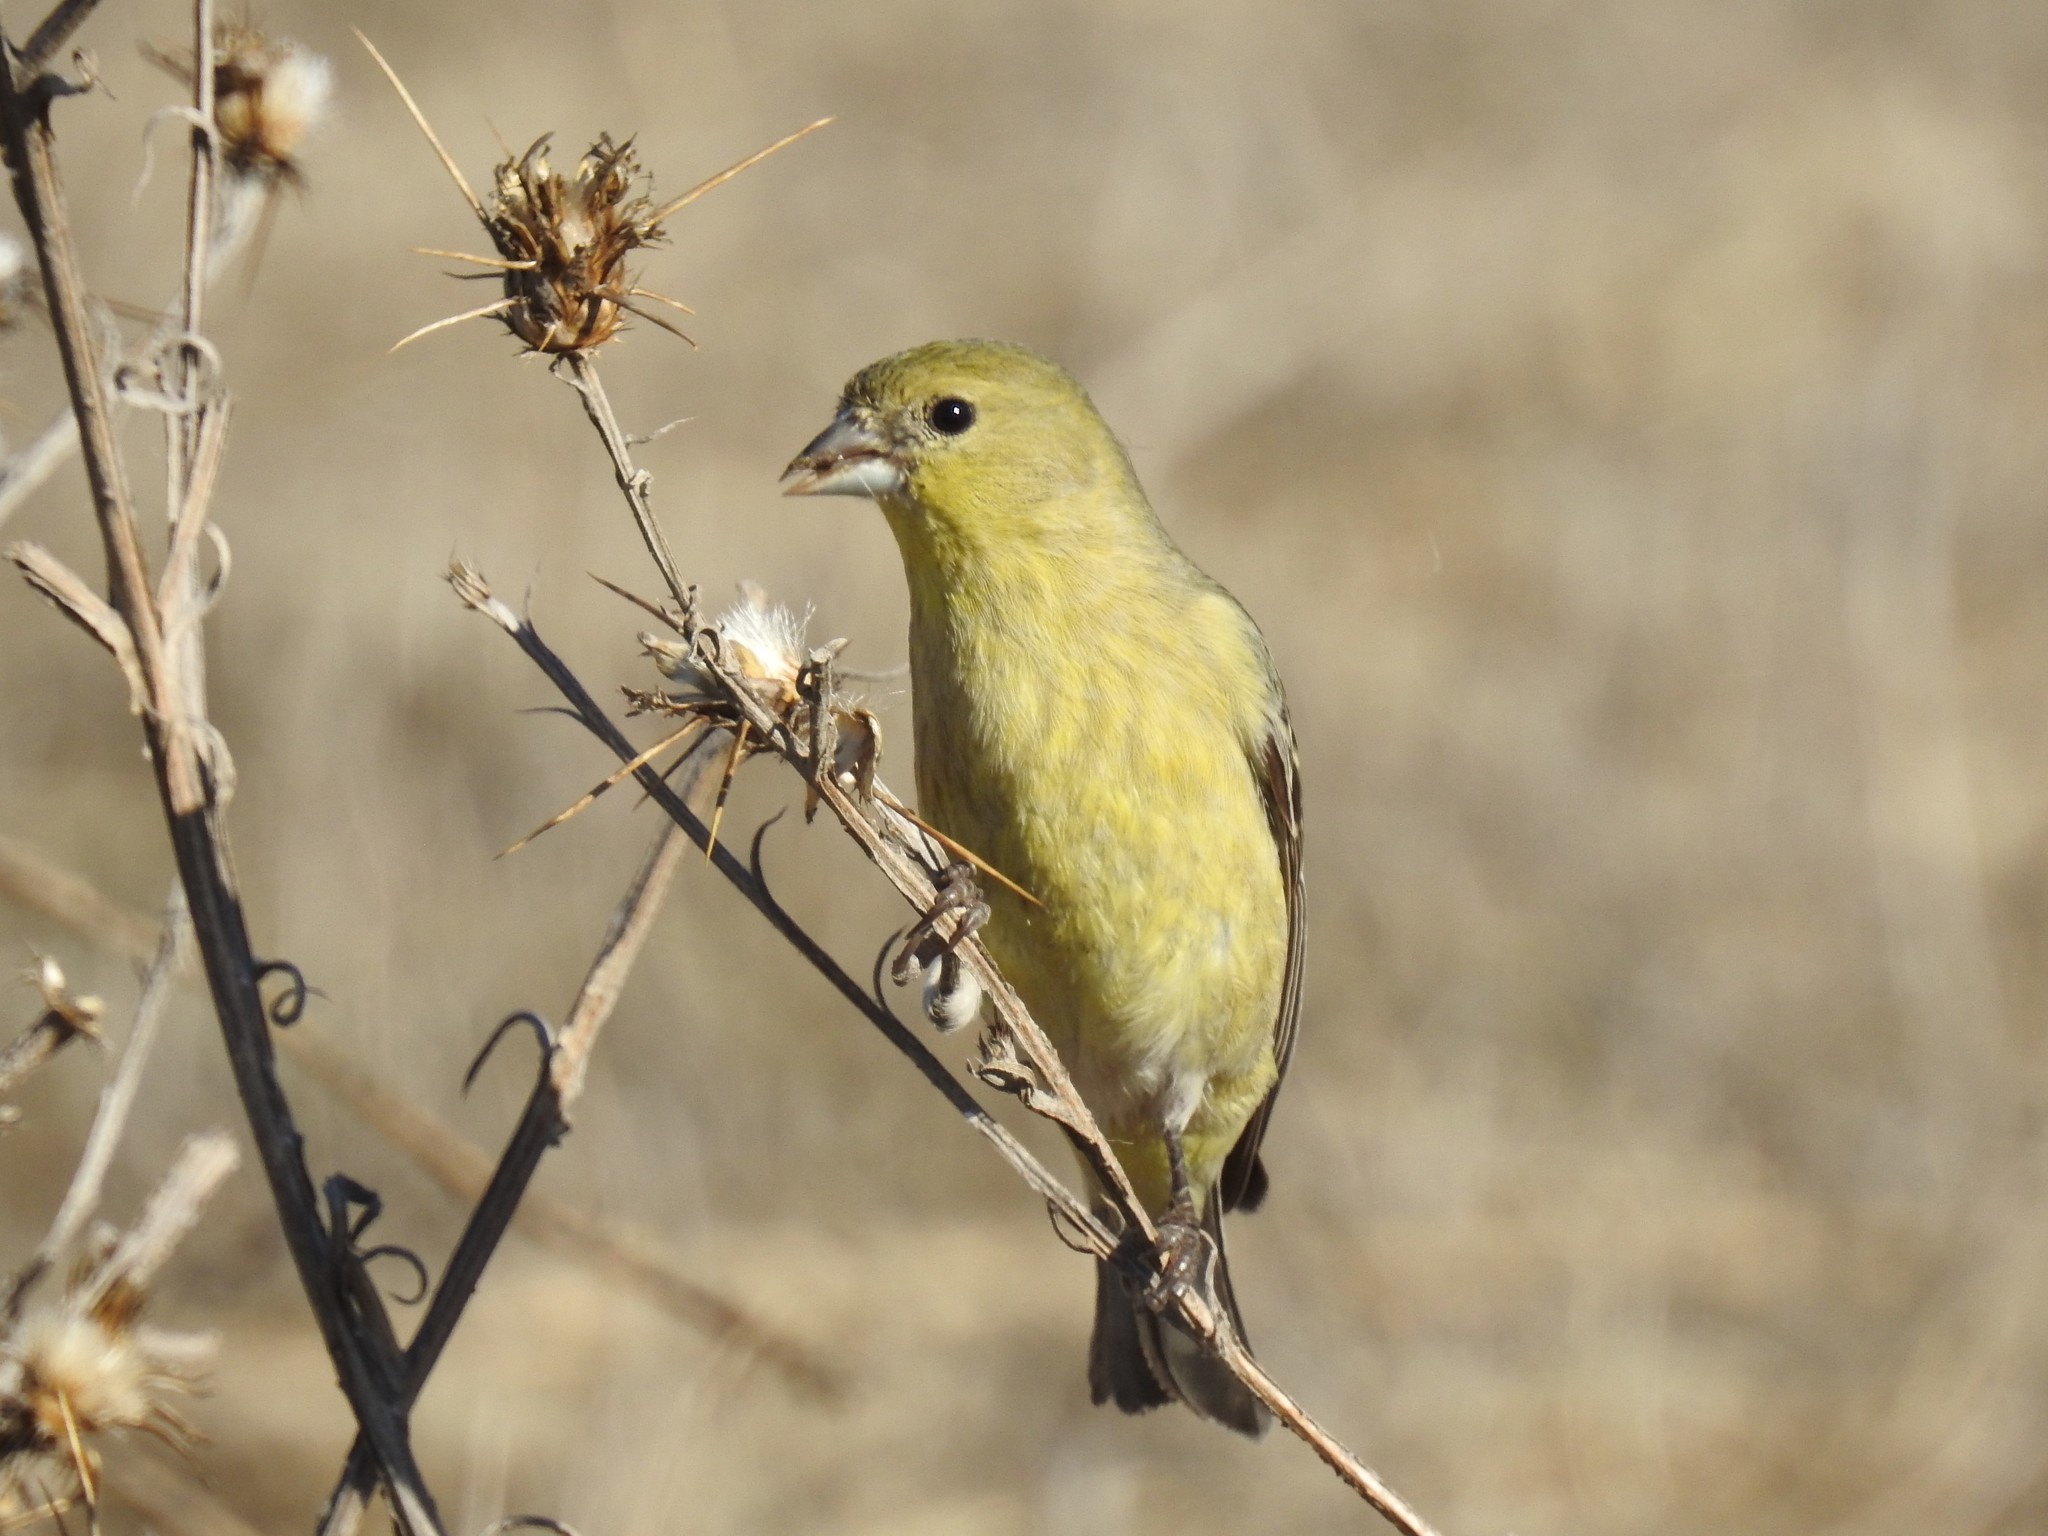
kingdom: Animalia
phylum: Chordata
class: Aves
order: Passeriformes
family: Fringillidae
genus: Spinus
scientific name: Spinus psaltria
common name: Lesser goldfinch
